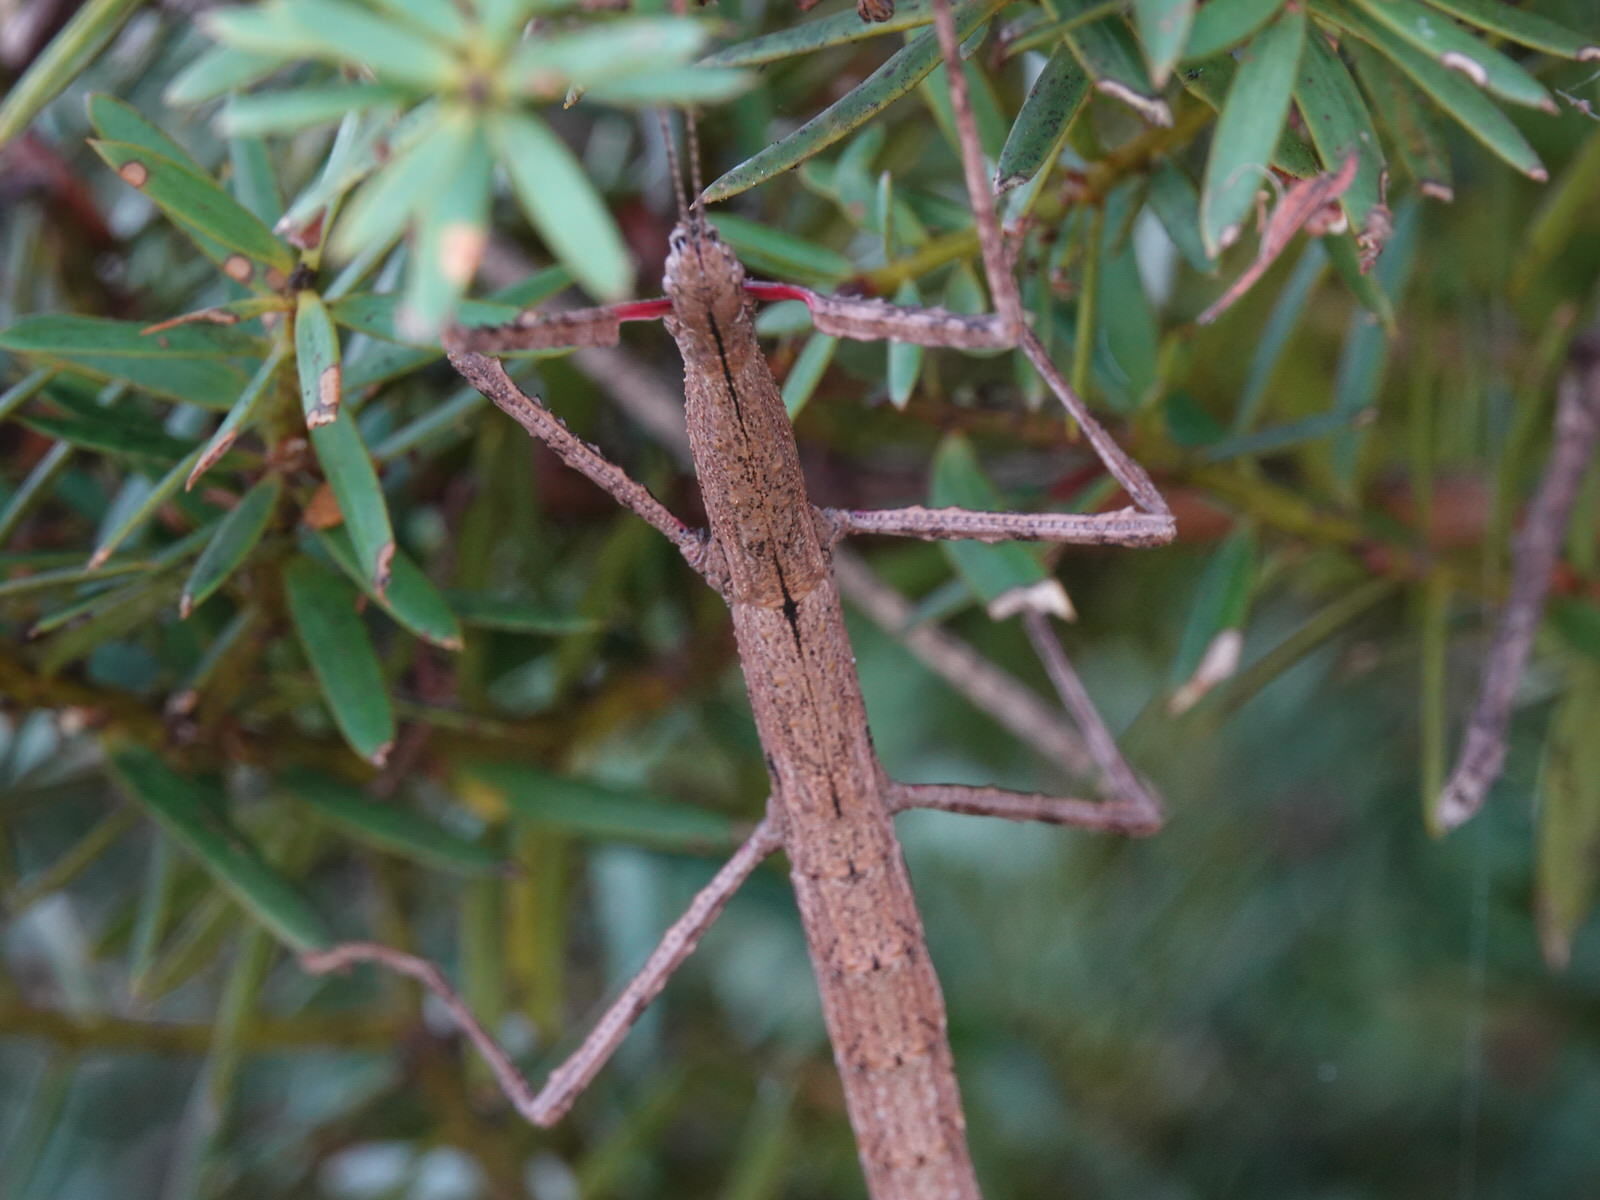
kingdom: Animalia
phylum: Arthropoda
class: Insecta
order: Phasmida
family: Phasmatidae
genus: Clitarchus
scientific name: Clitarchus hookeri
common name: Smooth stick insect
